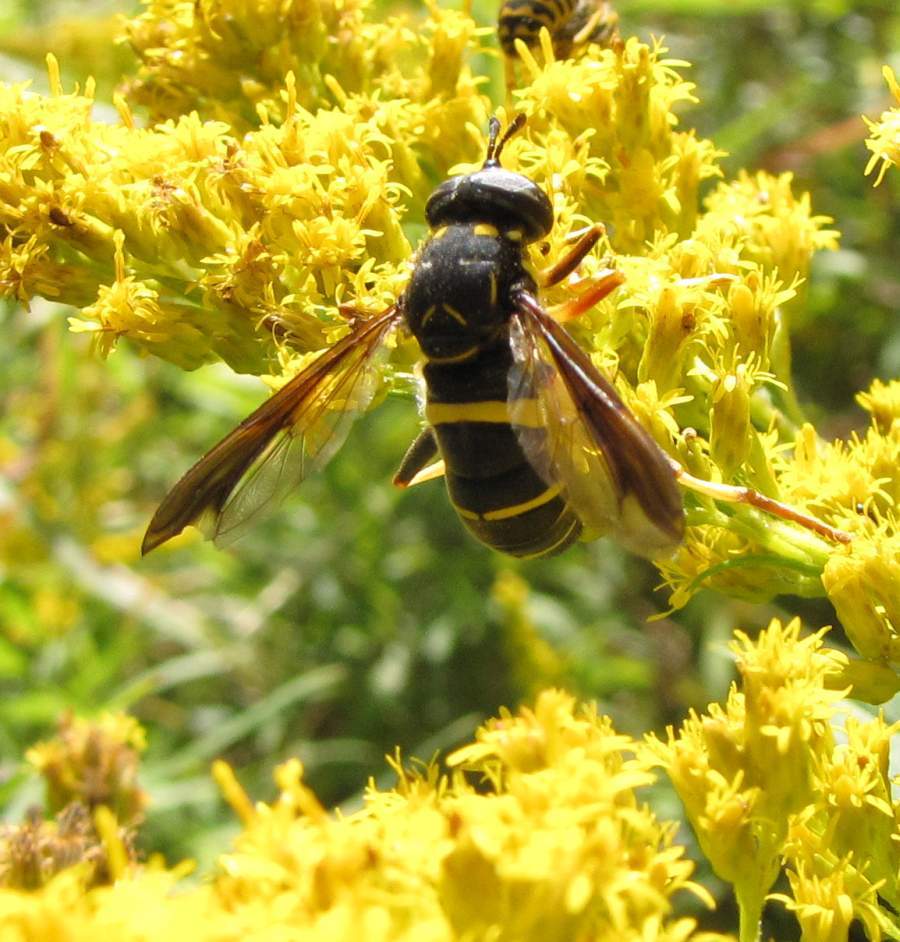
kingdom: Animalia
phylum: Arthropoda
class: Insecta
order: Diptera
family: Syrphidae
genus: Spilomyia
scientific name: Spilomyia sayi
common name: Four-lined hornet fly
